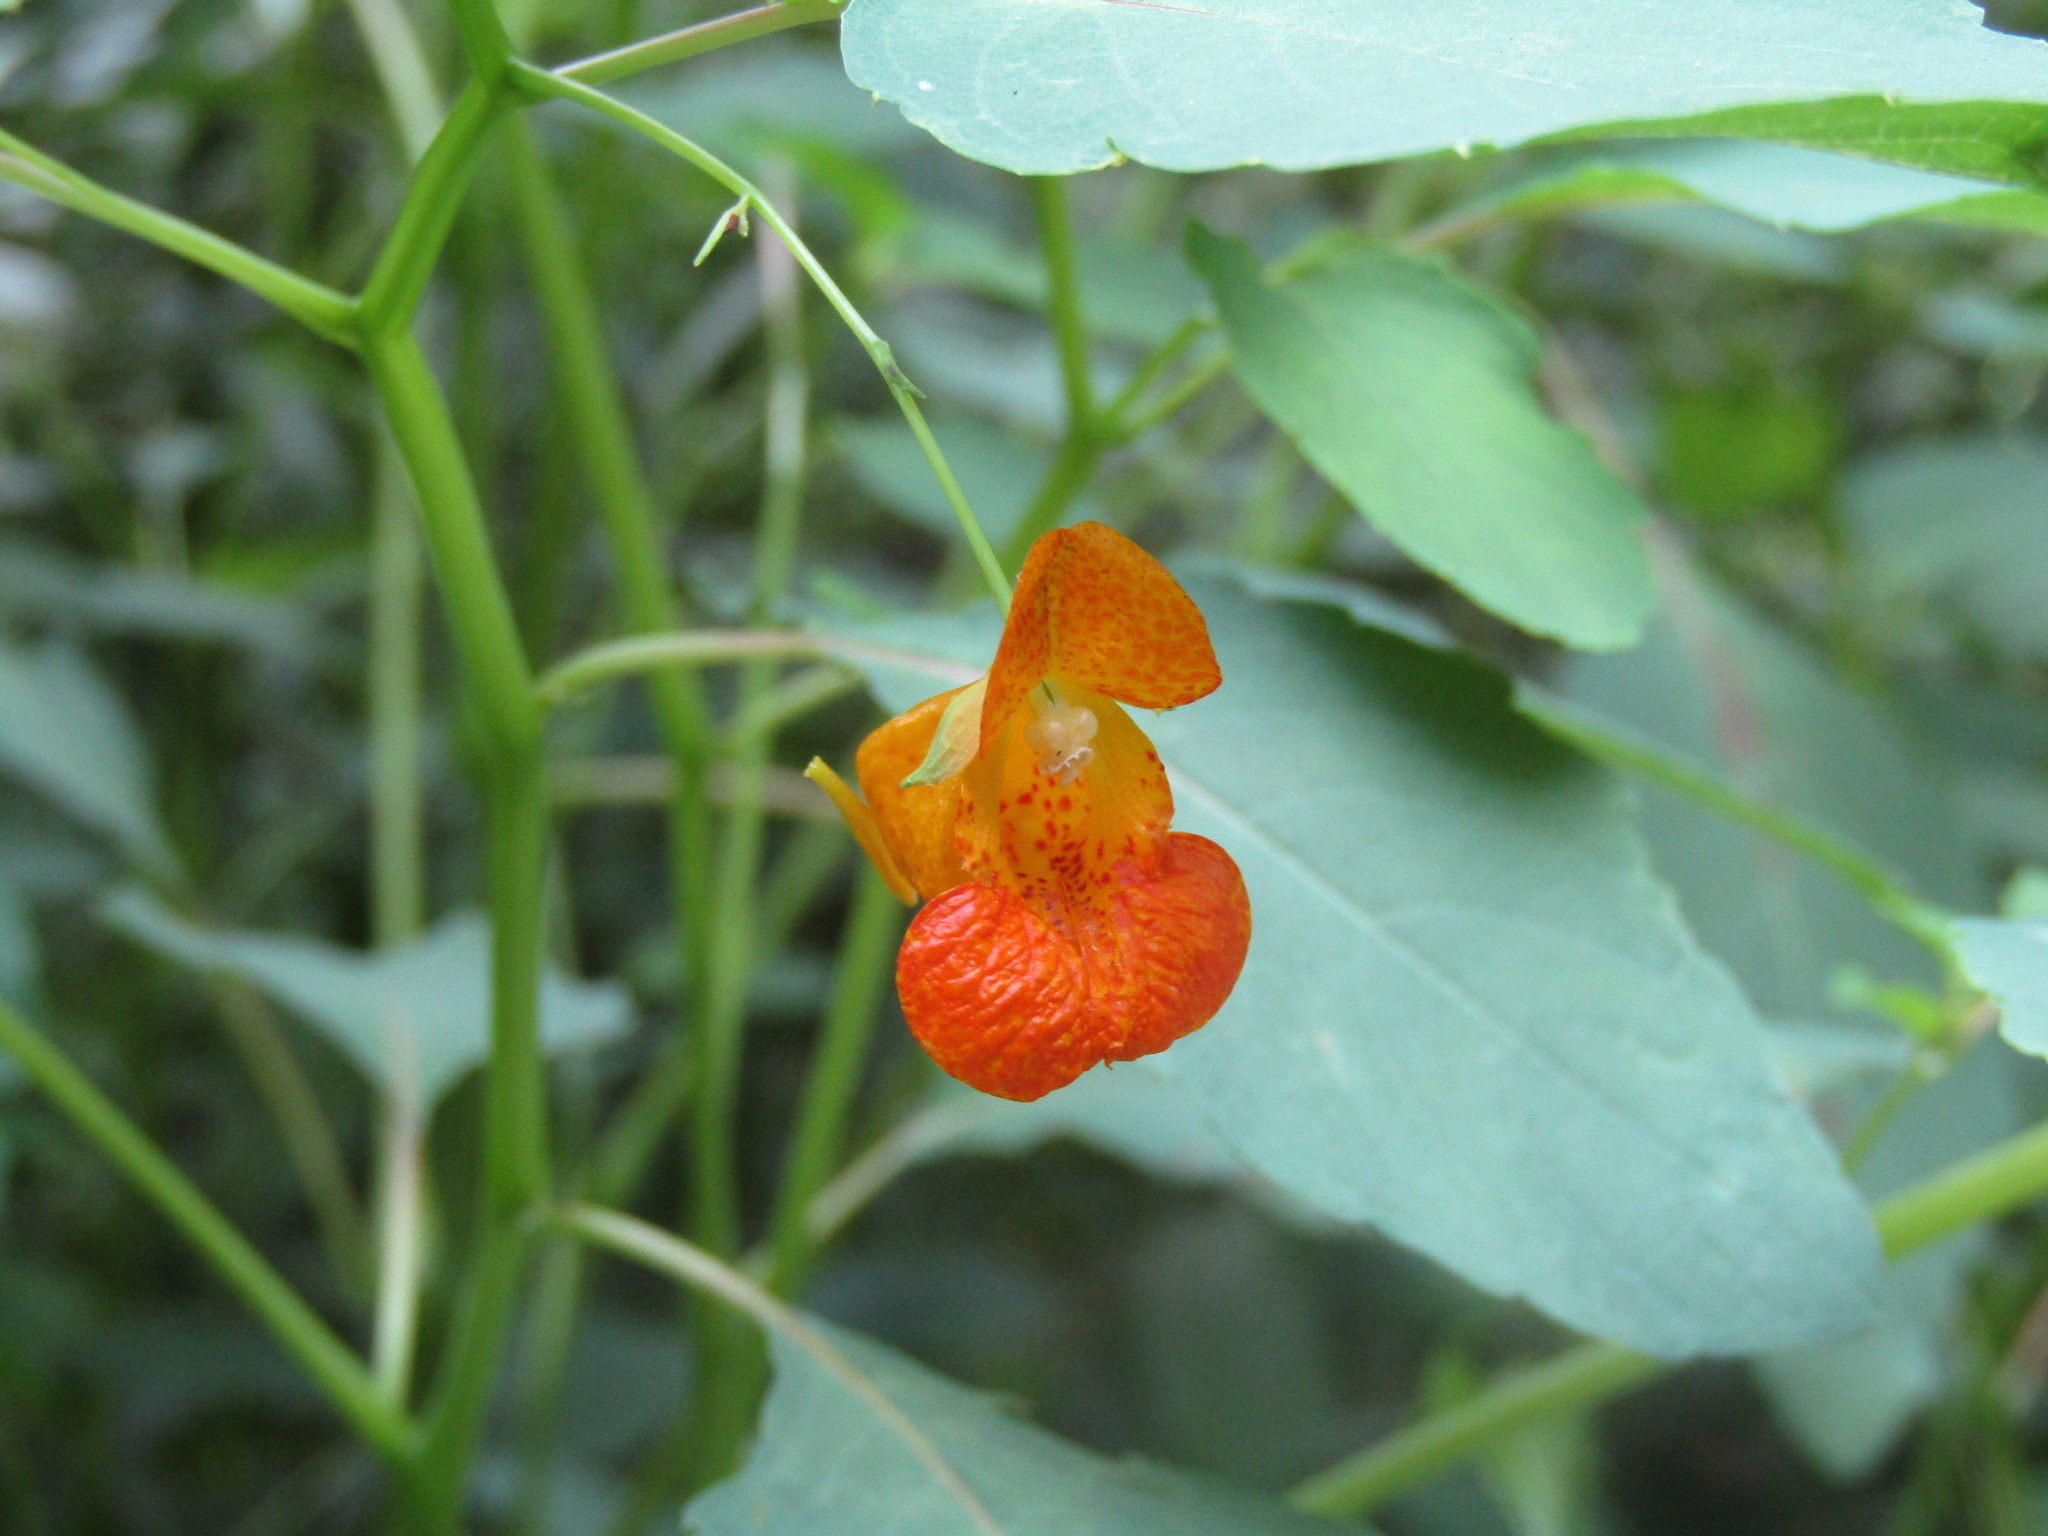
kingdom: Plantae
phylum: Tracheophyta
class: Magnoliopsida
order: Ericales
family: Balsaminaceae
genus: Impatiens
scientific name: Impatiens capensis
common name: Orange balsam
